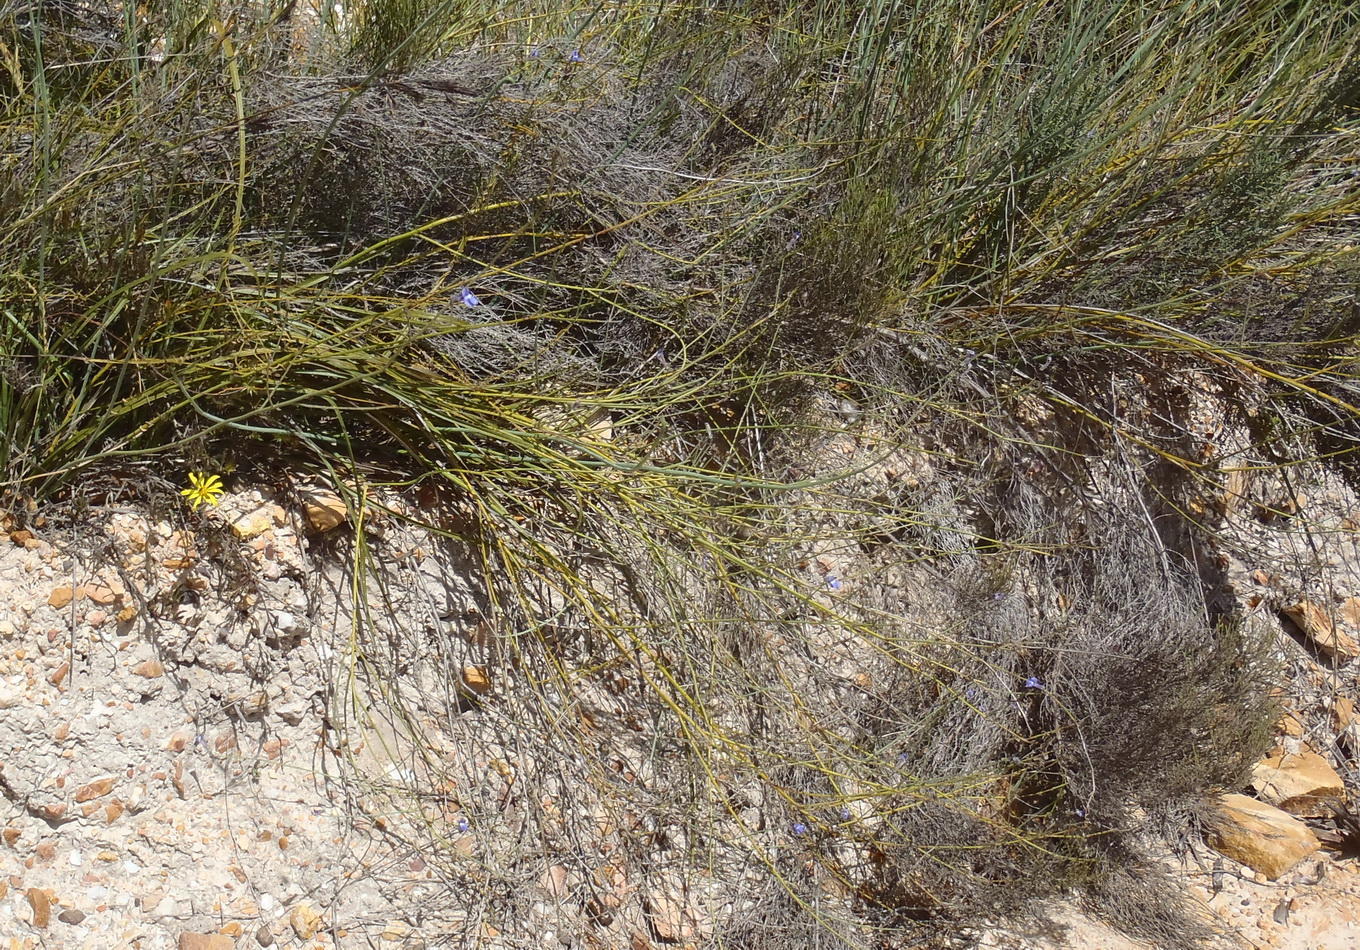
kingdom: Plantae
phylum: Tracheophyta
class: Magnoliopsida
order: Asterales
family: Campanulaceae
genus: Lobelia
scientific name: Lobelia linearis
